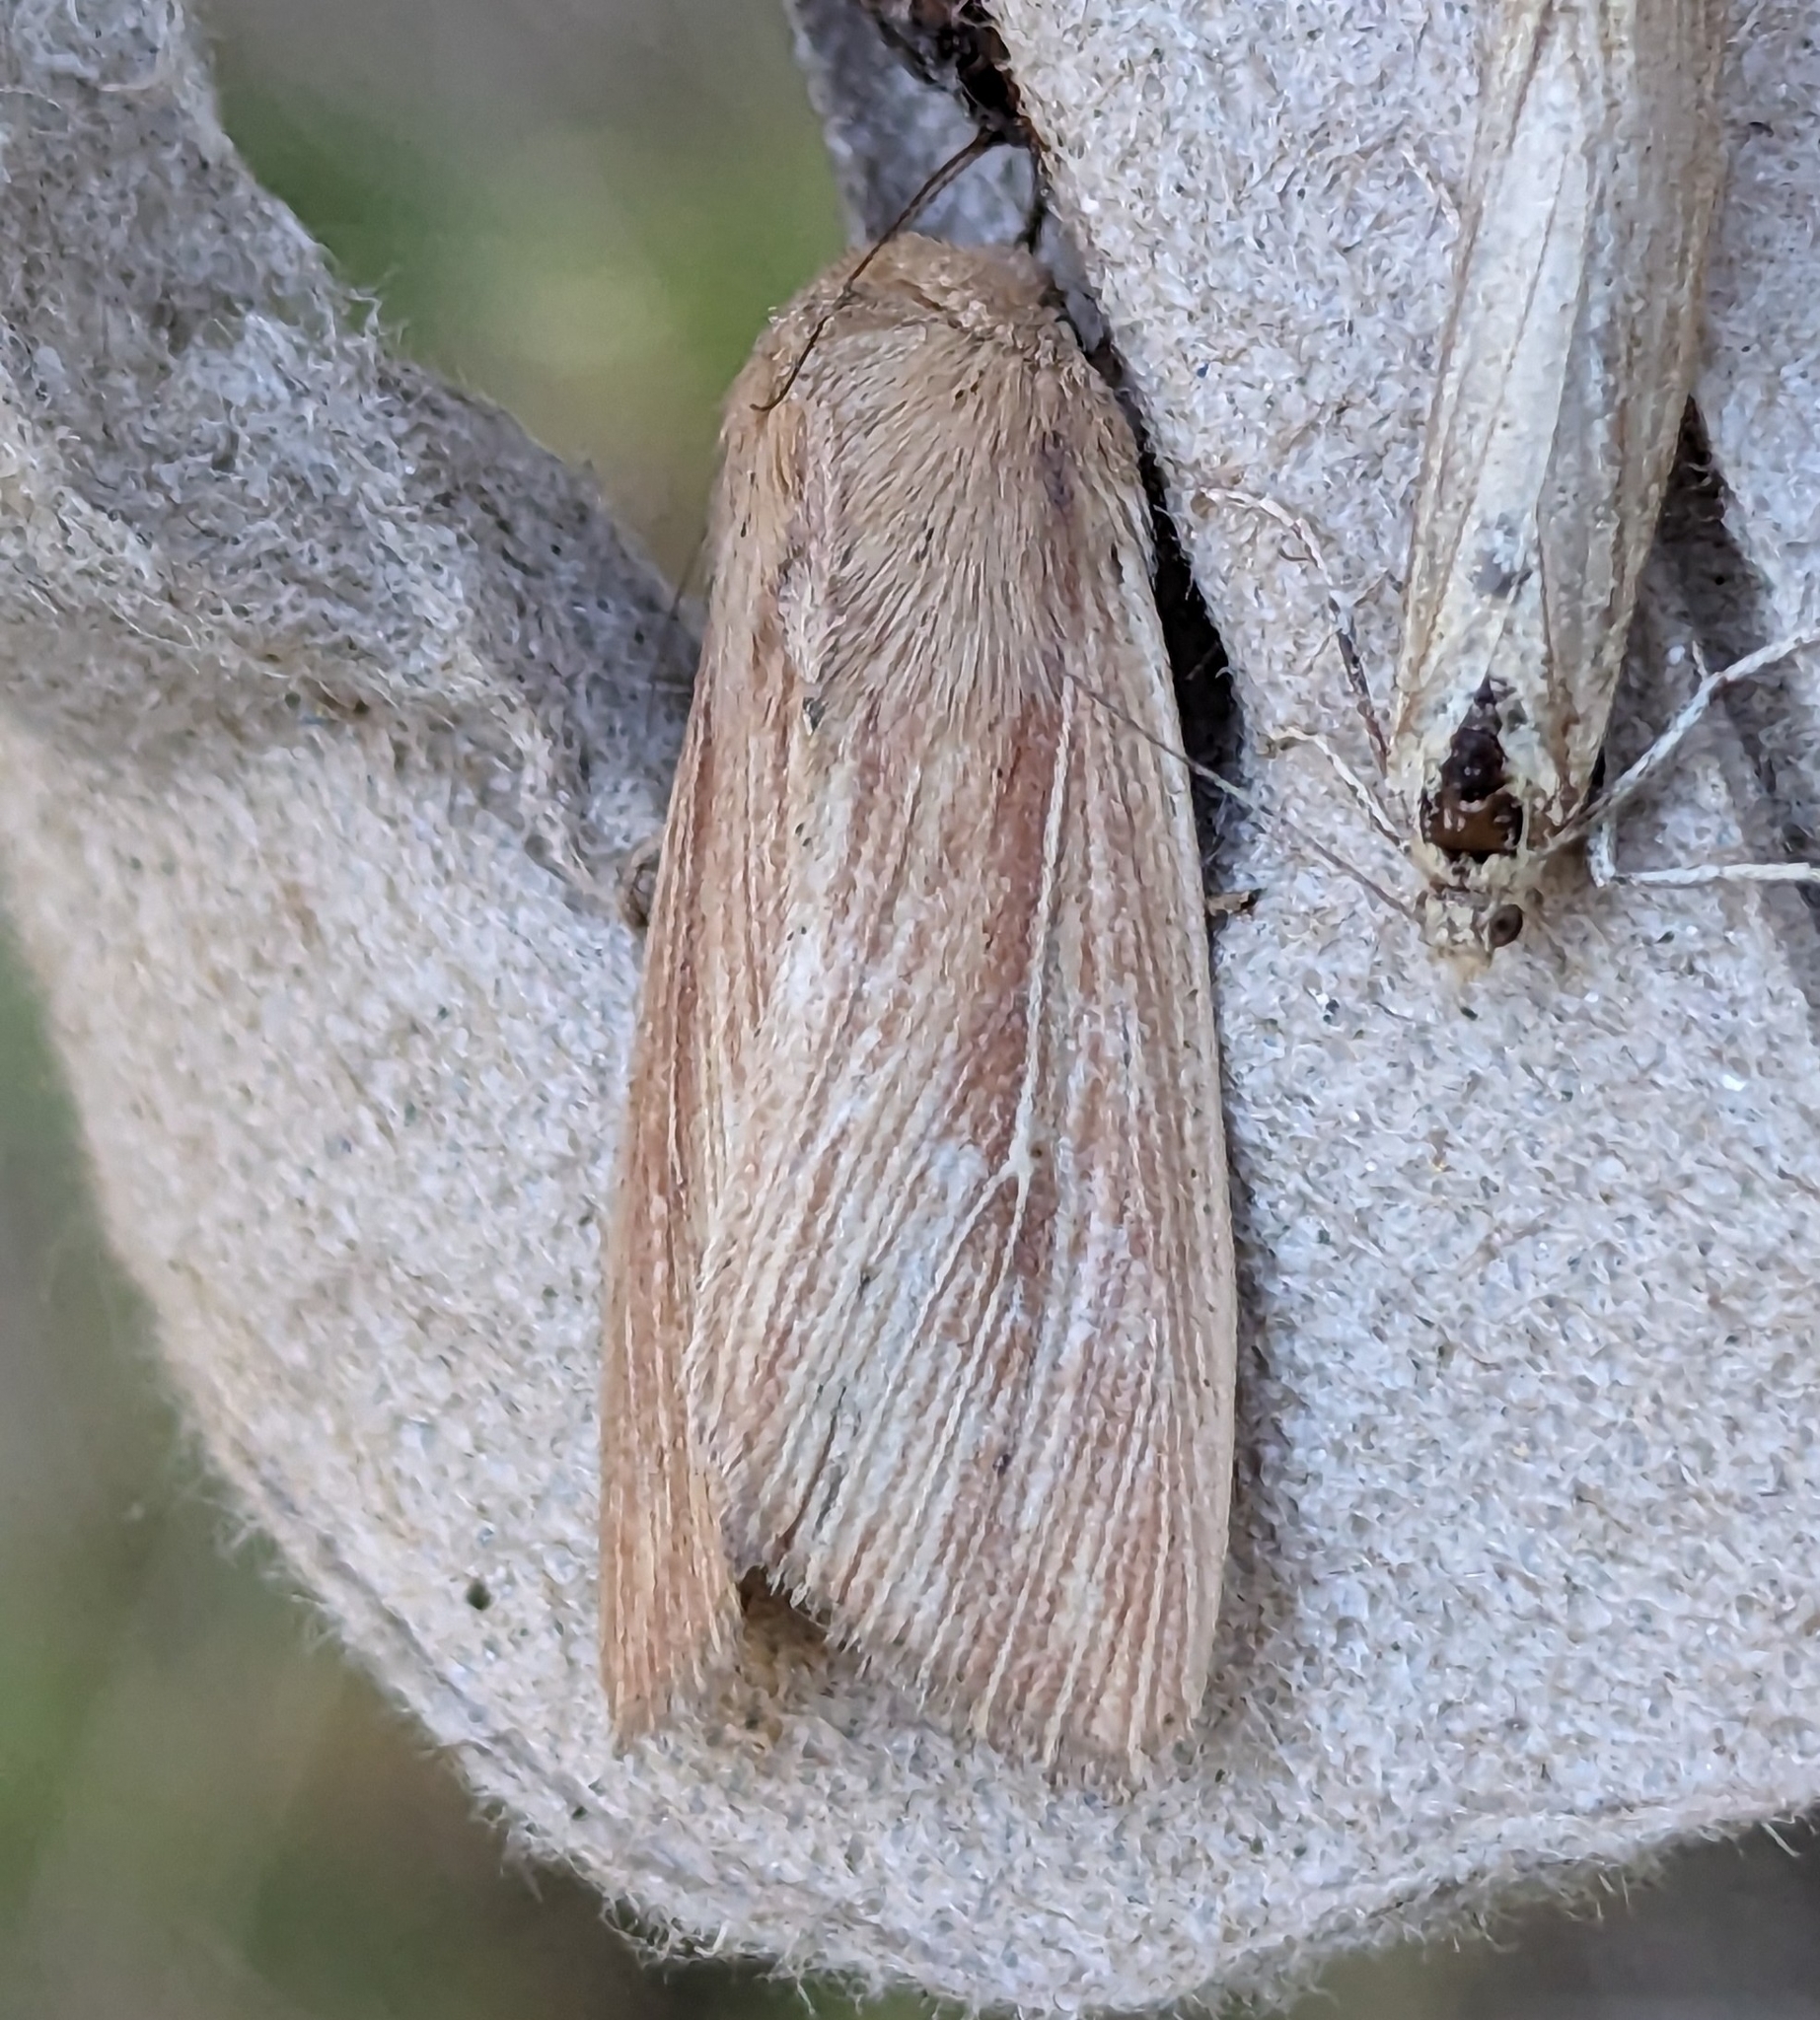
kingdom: Animalia
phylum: Arthropoda
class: Insecta
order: Lepidoptera
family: Noctuidae
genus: Leucania
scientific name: Leucania farcta
